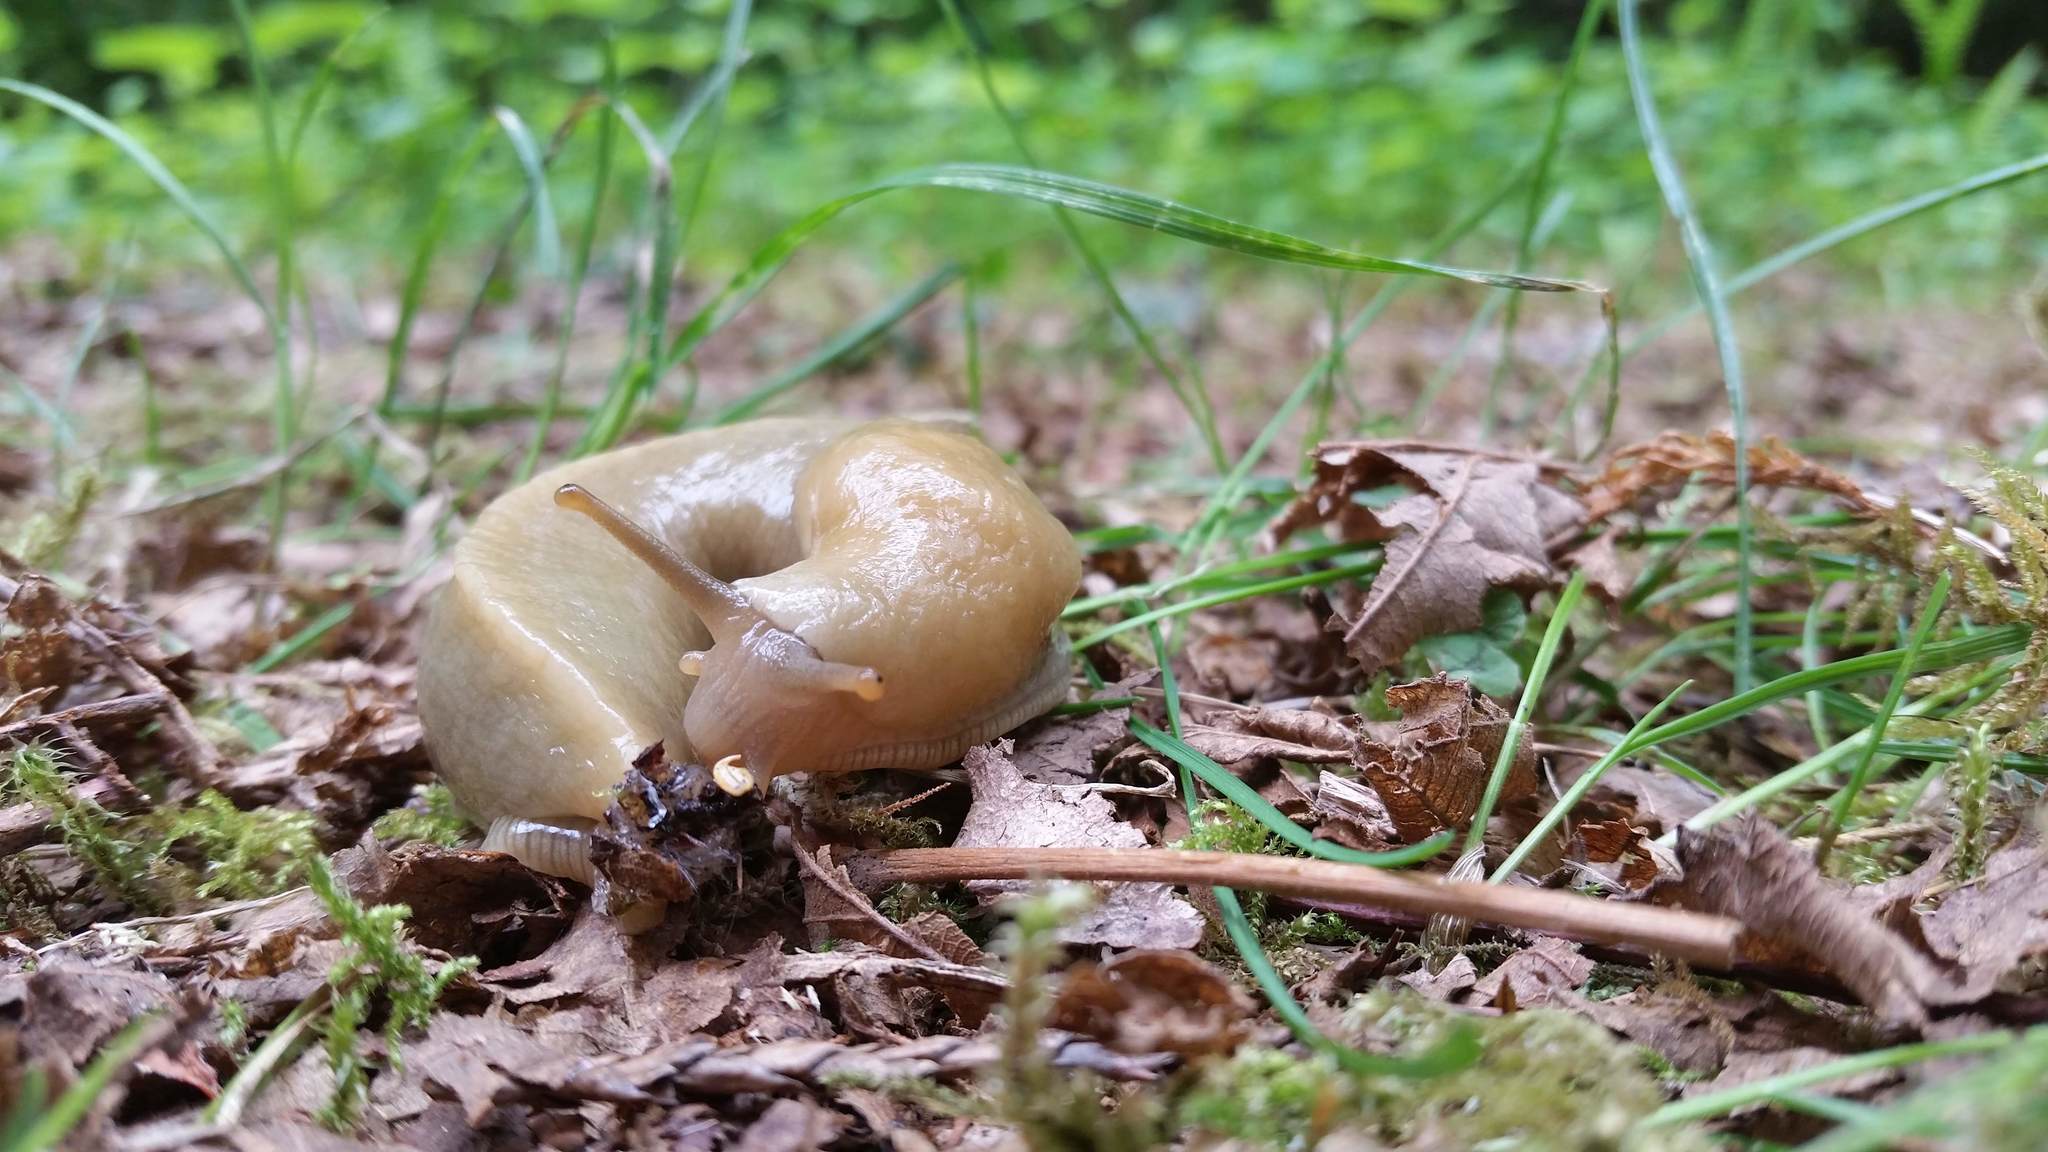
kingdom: Animalia
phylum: Mollusca
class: Gastropoda
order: Stylommatophora
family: Ariolimacidae
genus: Ariolimax
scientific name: Ariolimax columbianus
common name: Pacific banana slug
